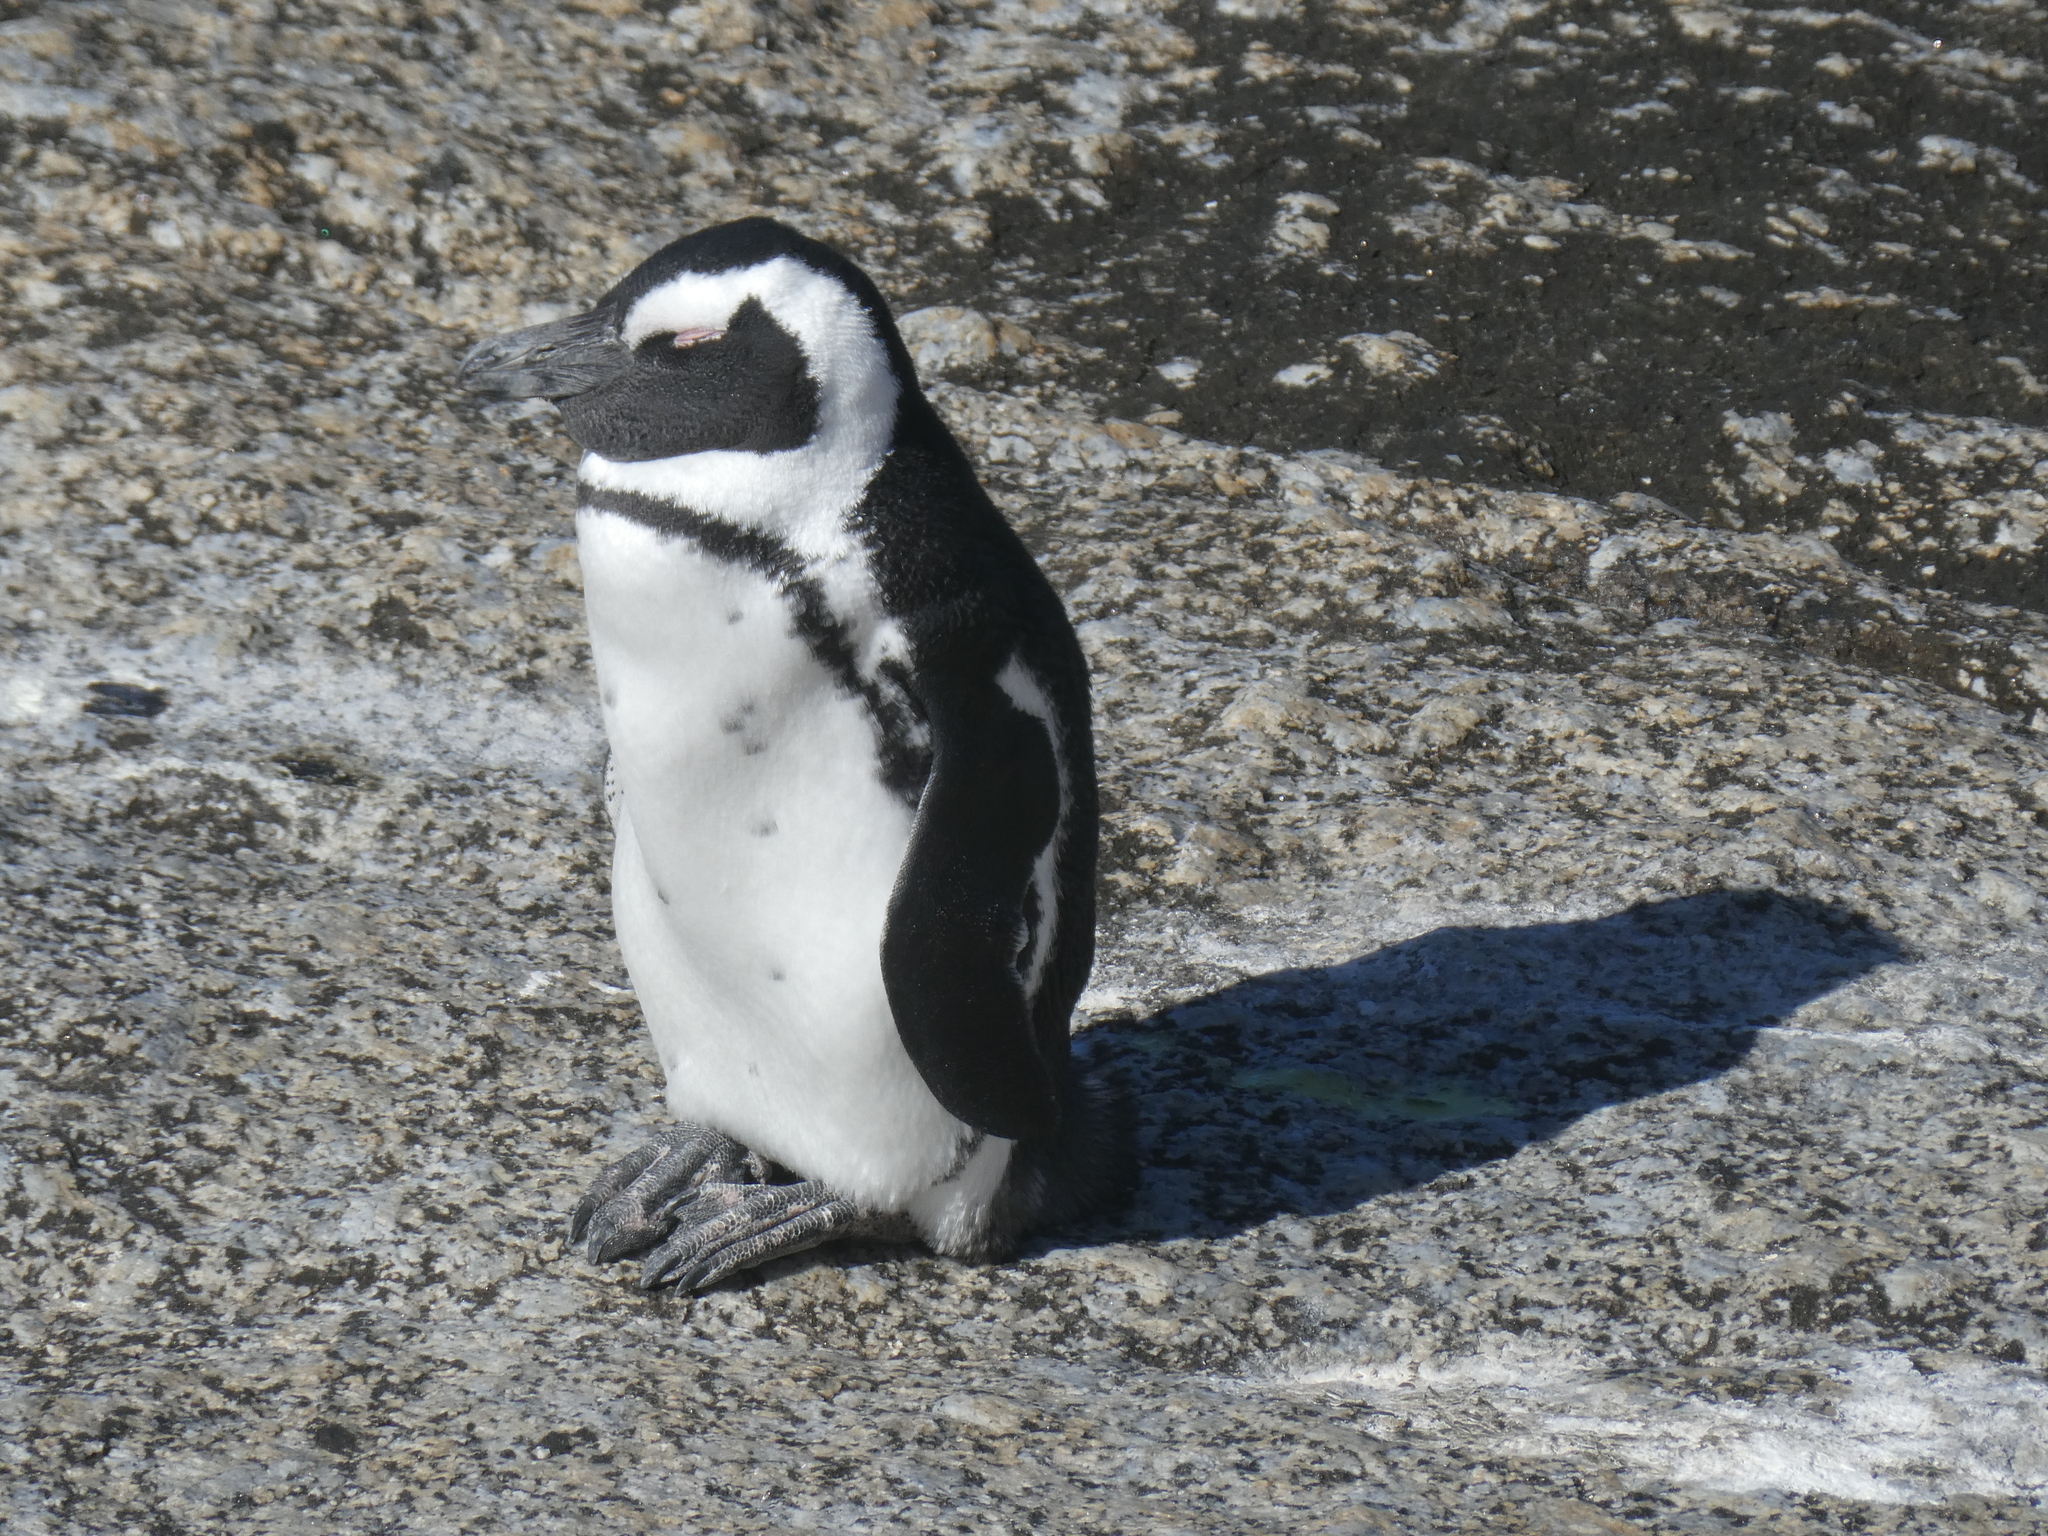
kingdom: Animalia
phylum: Chordata
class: Aves
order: Sphenisciformes
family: Spheniscidae
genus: Spheniscus
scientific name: Spheniscus demersus
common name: African penguin
